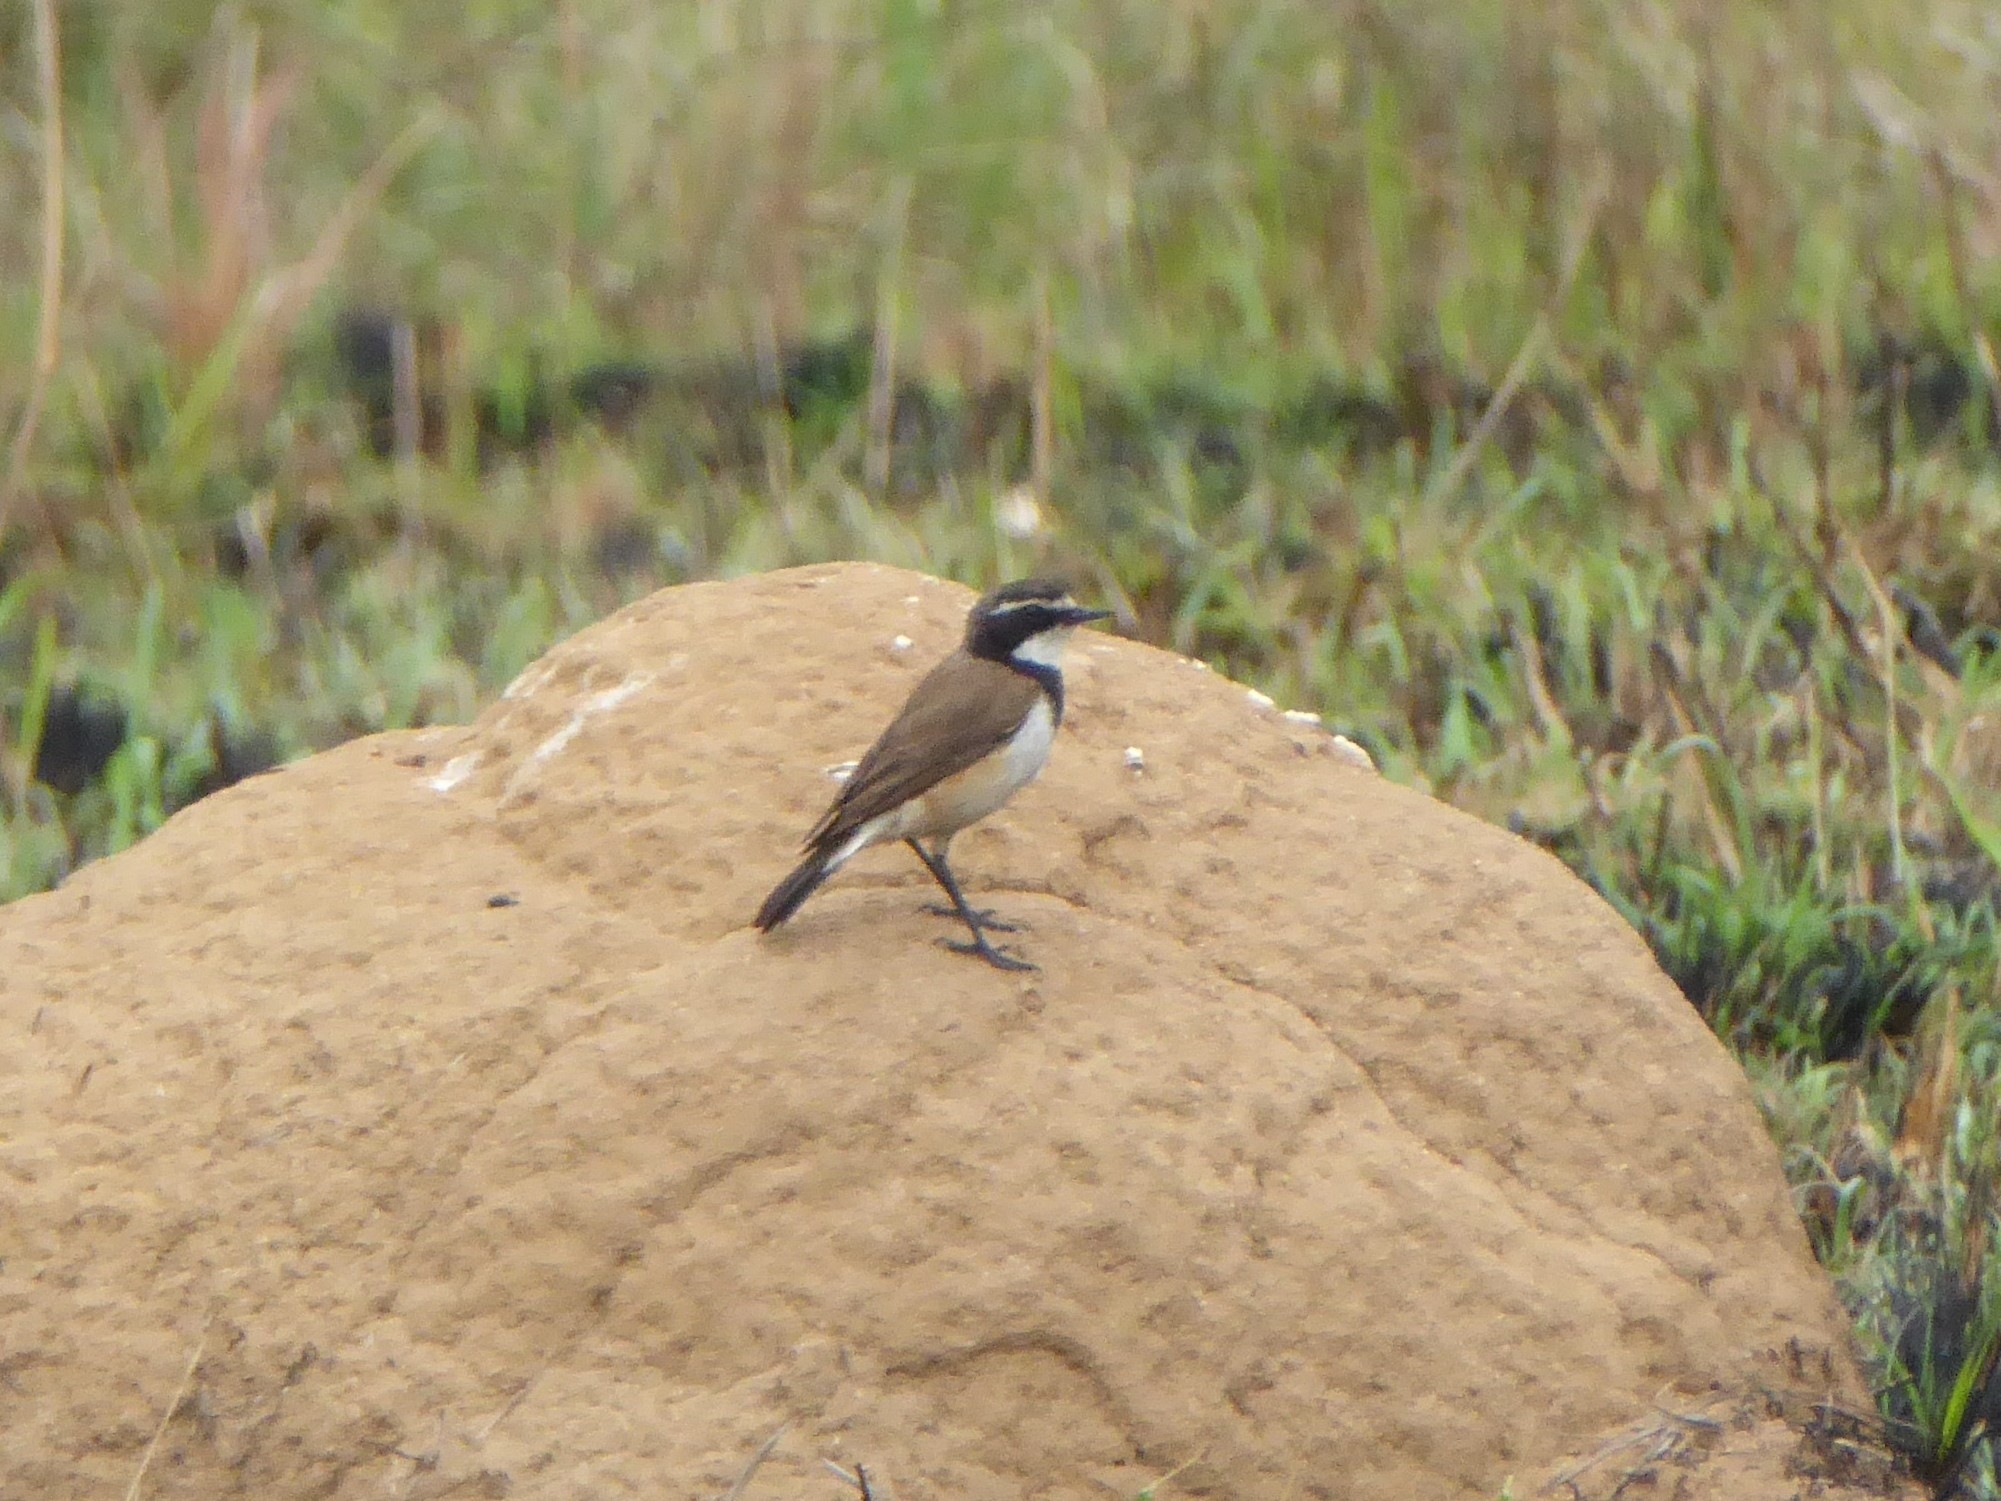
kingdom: Animalia
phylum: Chordata
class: Aves
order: Passeriformes
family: Muscicapidae
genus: Oenanthe
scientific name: Oenanthe pileata
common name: Capped wheatear
